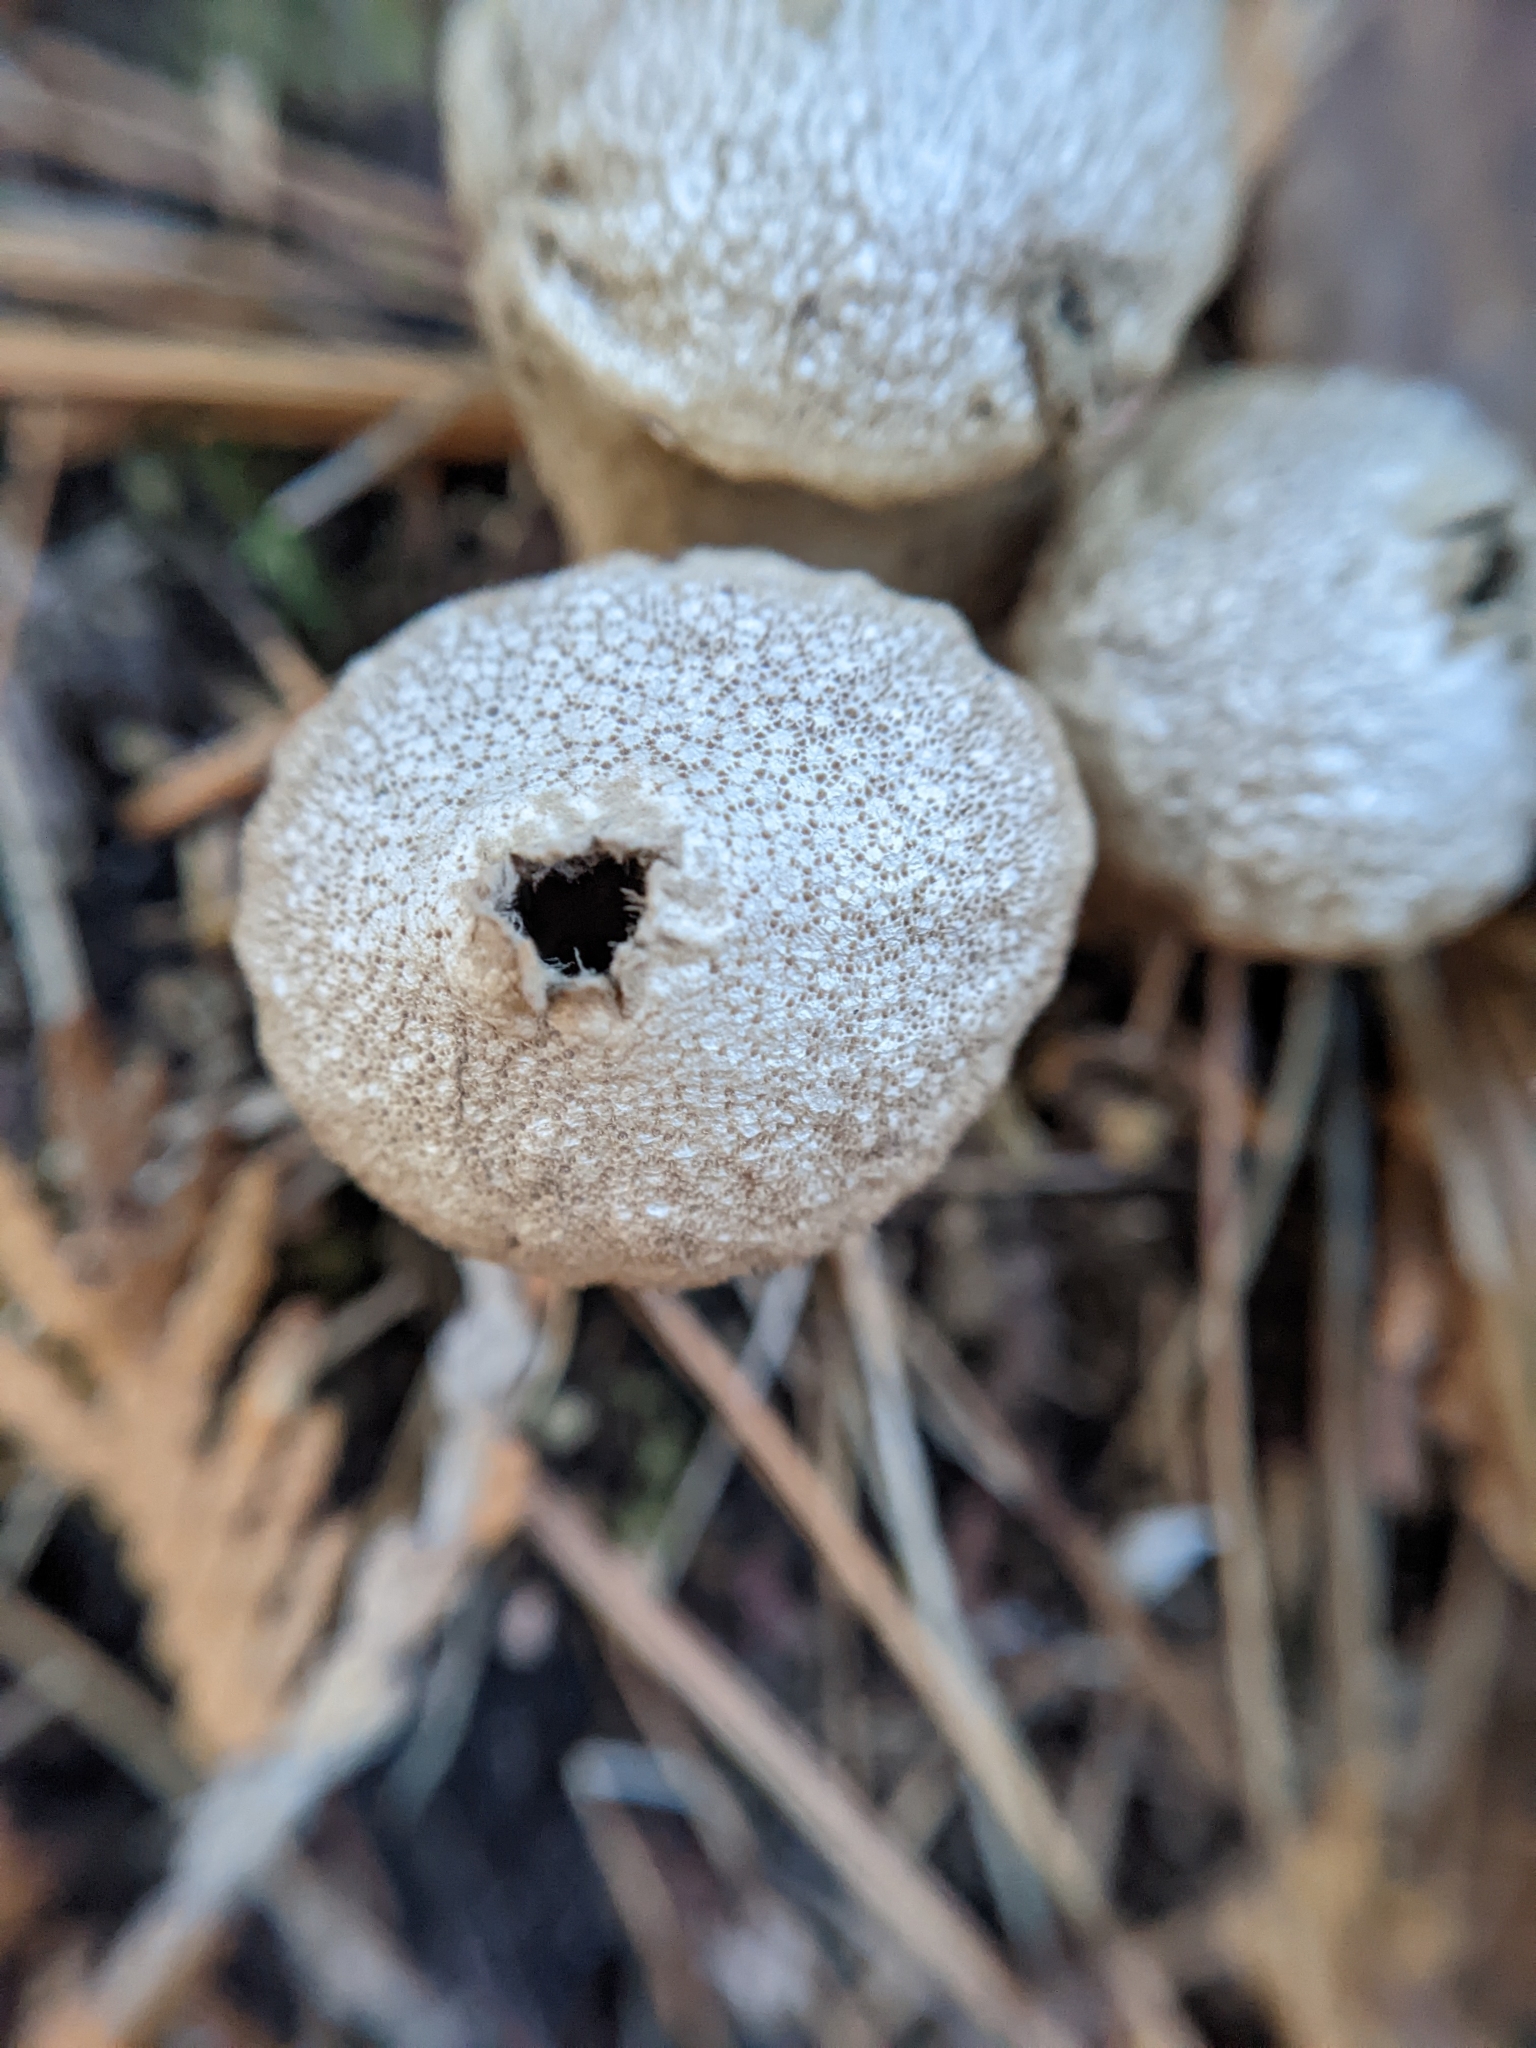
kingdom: Fungi
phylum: Basidiomycota
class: Agaricomycetes
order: Agaricales
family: Lycoperdaceae
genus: Lycoperdon
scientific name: Lycoperdon perlatum
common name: Common puffball
